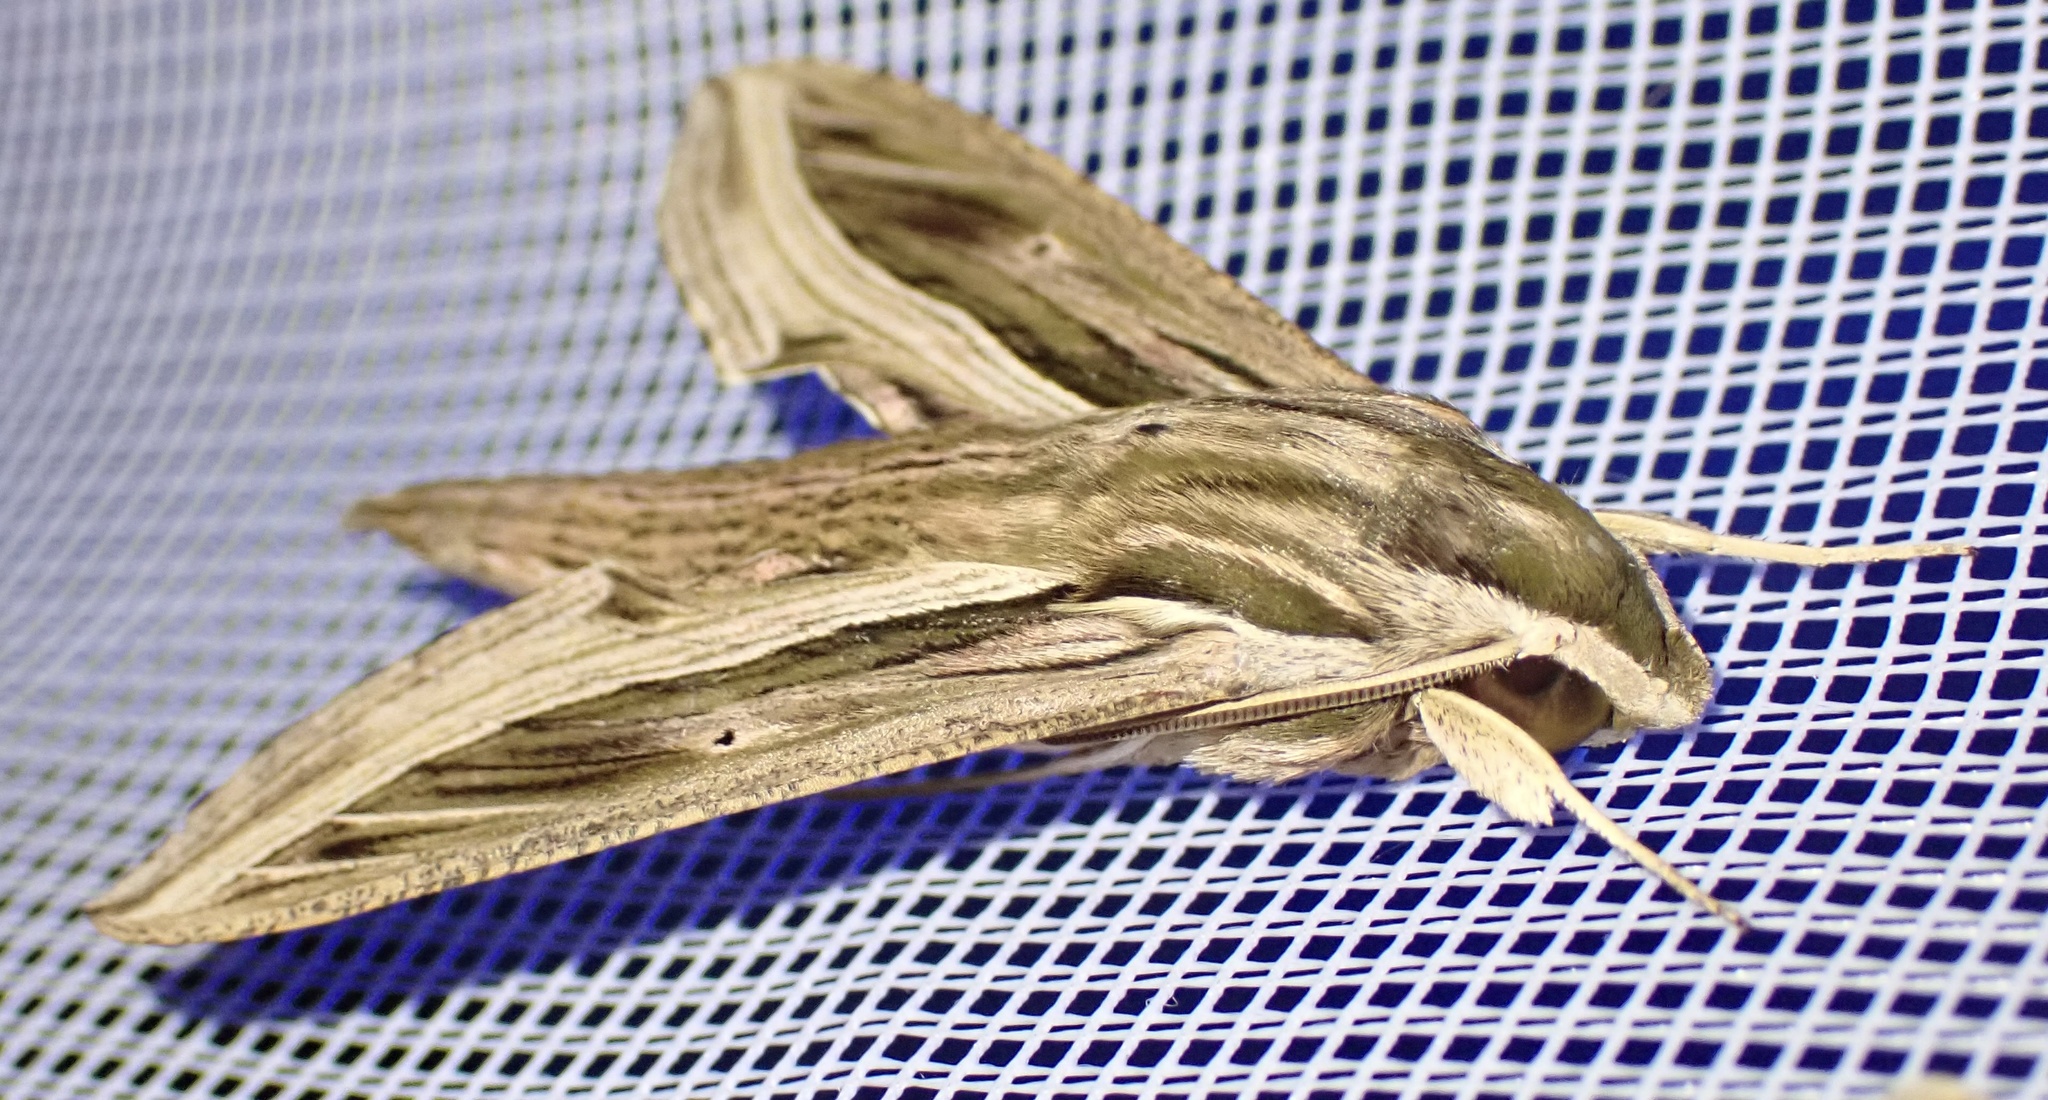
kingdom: Animalia
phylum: Arthropoda
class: Insecta
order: Lepidoptera
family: Sphingidae
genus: Hippotion
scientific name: Hippotion celerio
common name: Silver-striped hawk-moth
